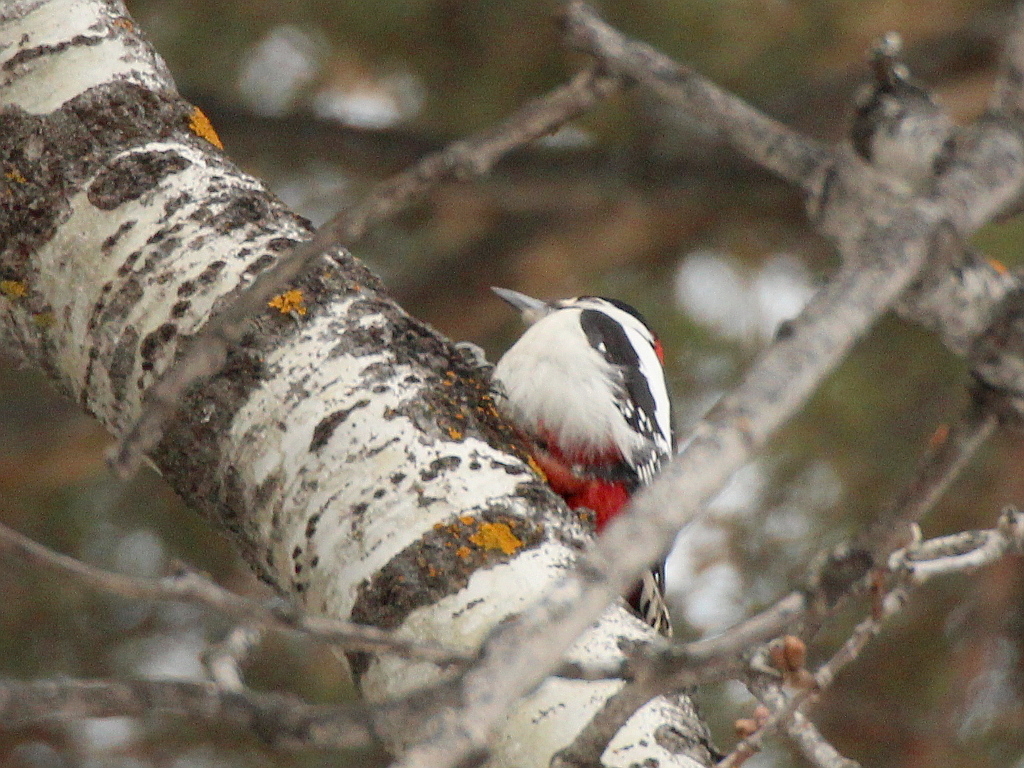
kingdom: Animalia
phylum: Chordata
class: Aves
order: Piciformes
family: Picidae
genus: Dendrocopos
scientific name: Dendrocopos major
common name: Great spotted woodpecker
